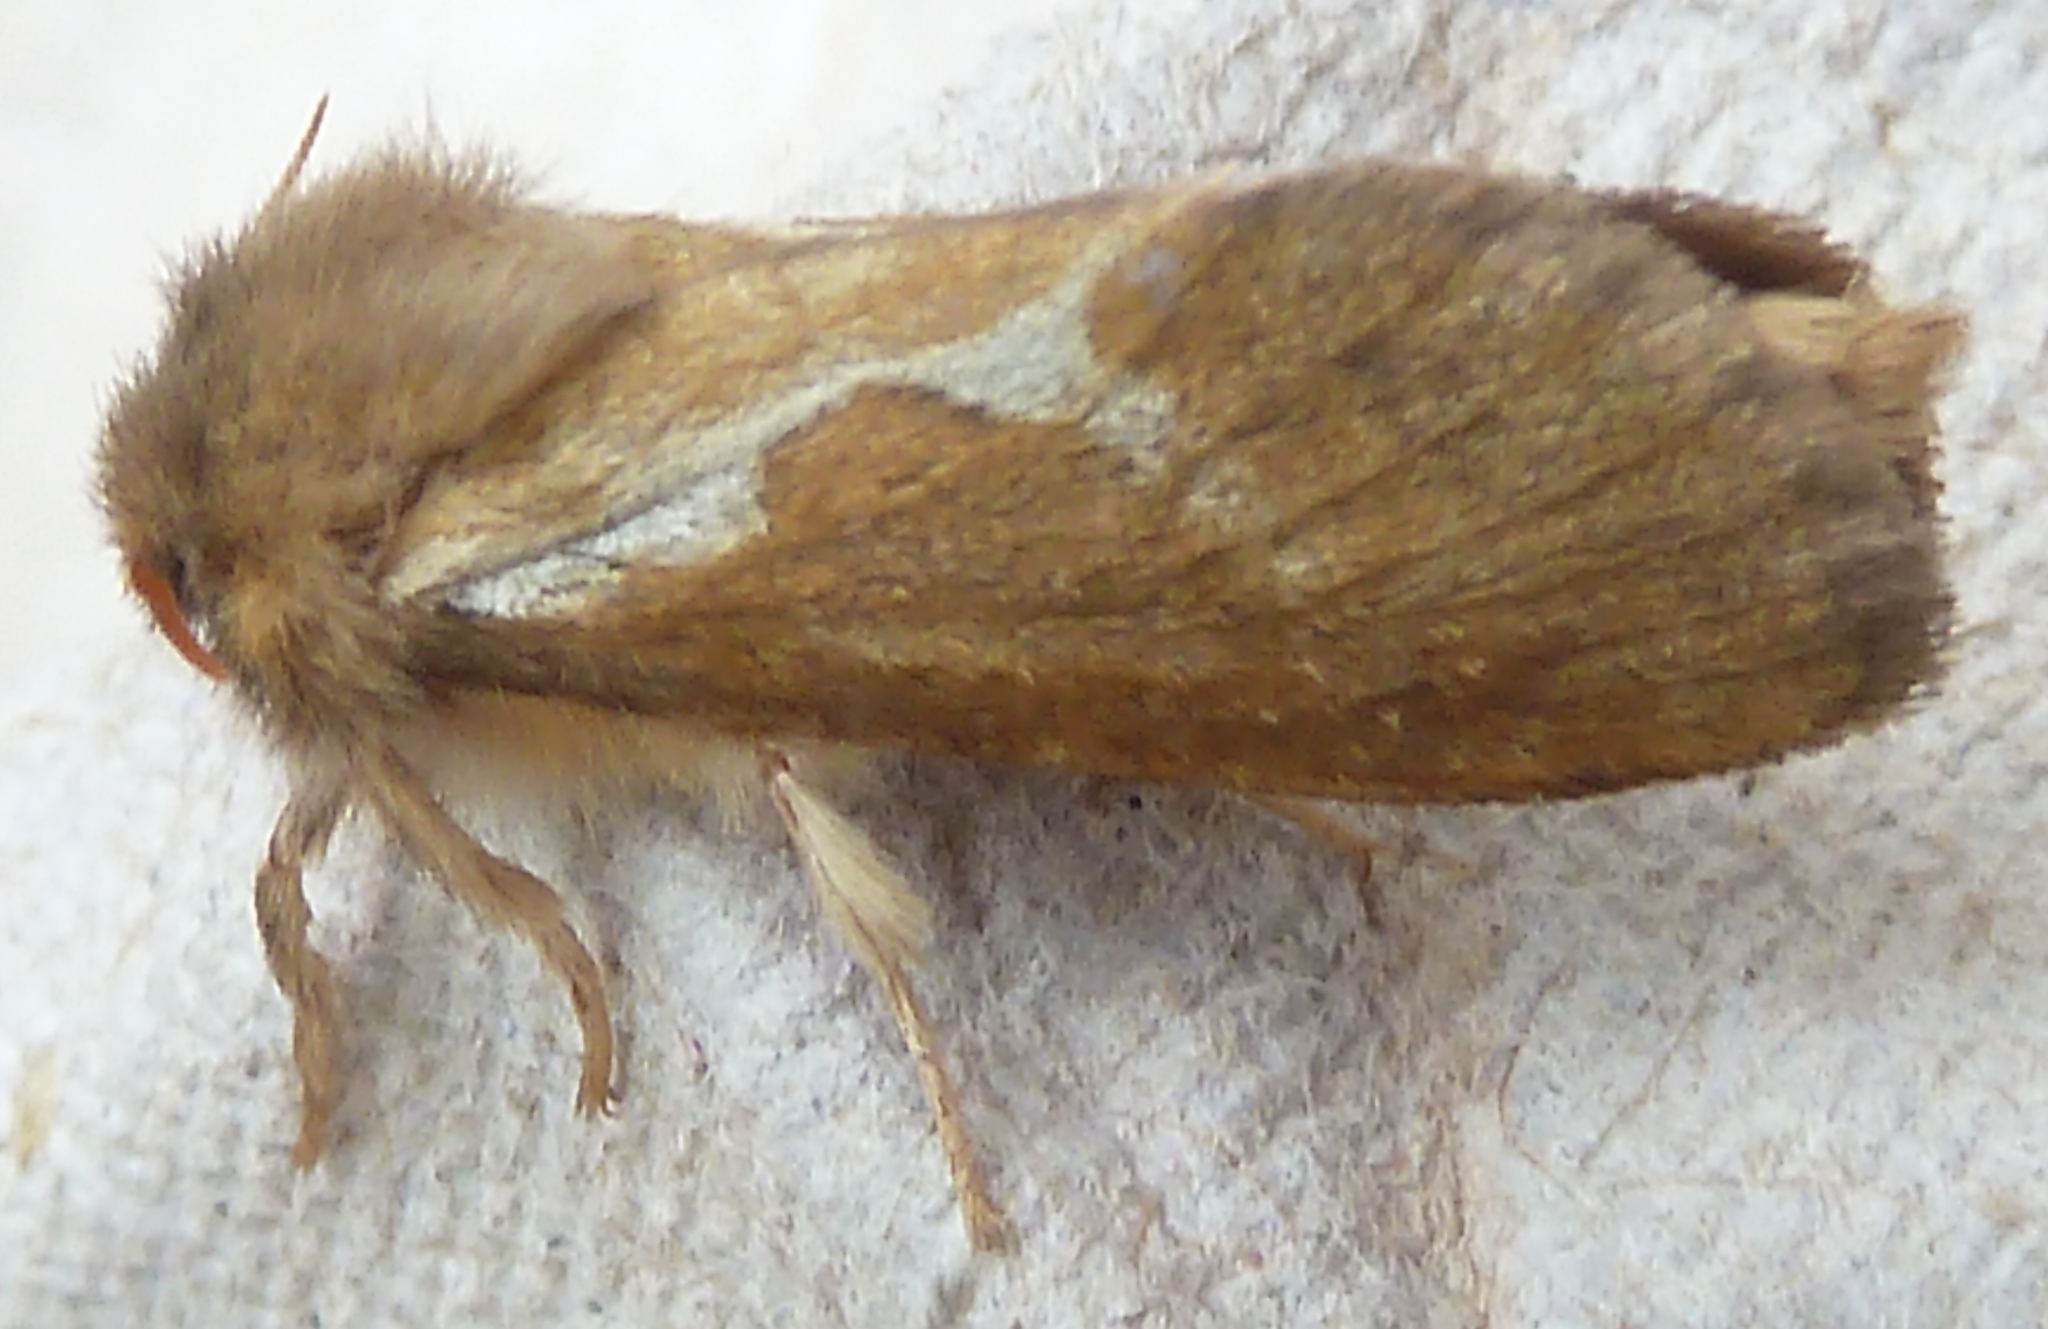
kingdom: Animalia
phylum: Arthropoda
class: Insecta
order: Lepidoptera
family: Hepialidae
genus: Korscheltellus
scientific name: Korscheltellus lupulina
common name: Common swift
